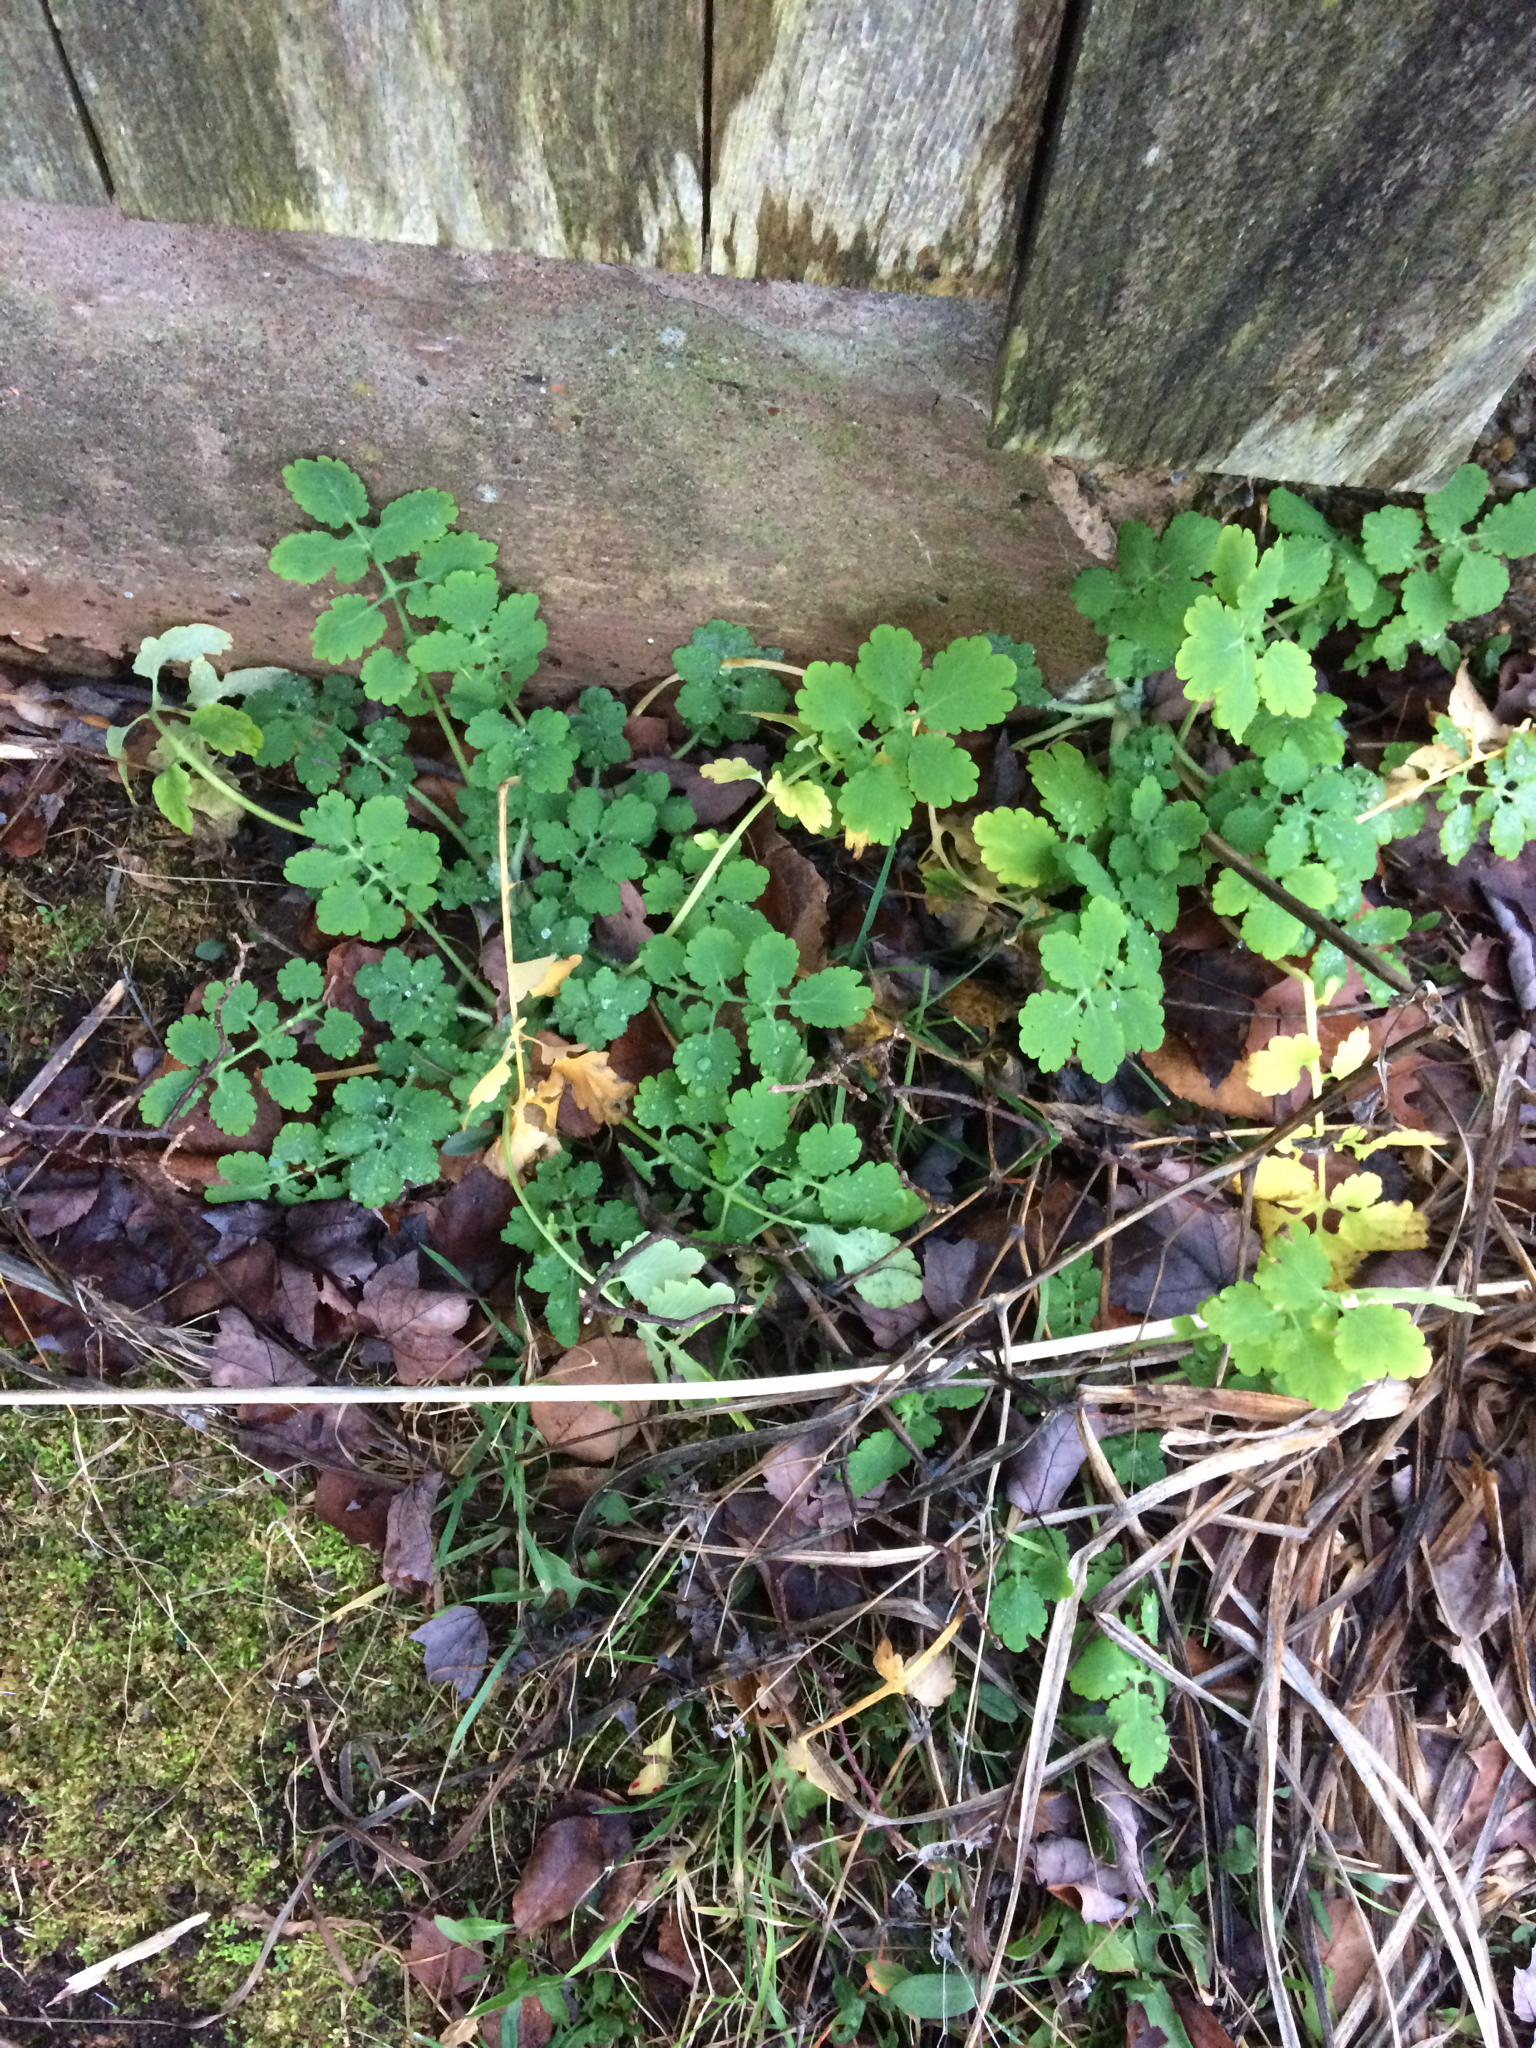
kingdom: Plantae
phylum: Tracheophyta
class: Magnoliopsida
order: Ranunculales
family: Papaveraceae
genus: Chelidonium
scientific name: Chelidonium majus
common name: Greater celandine
